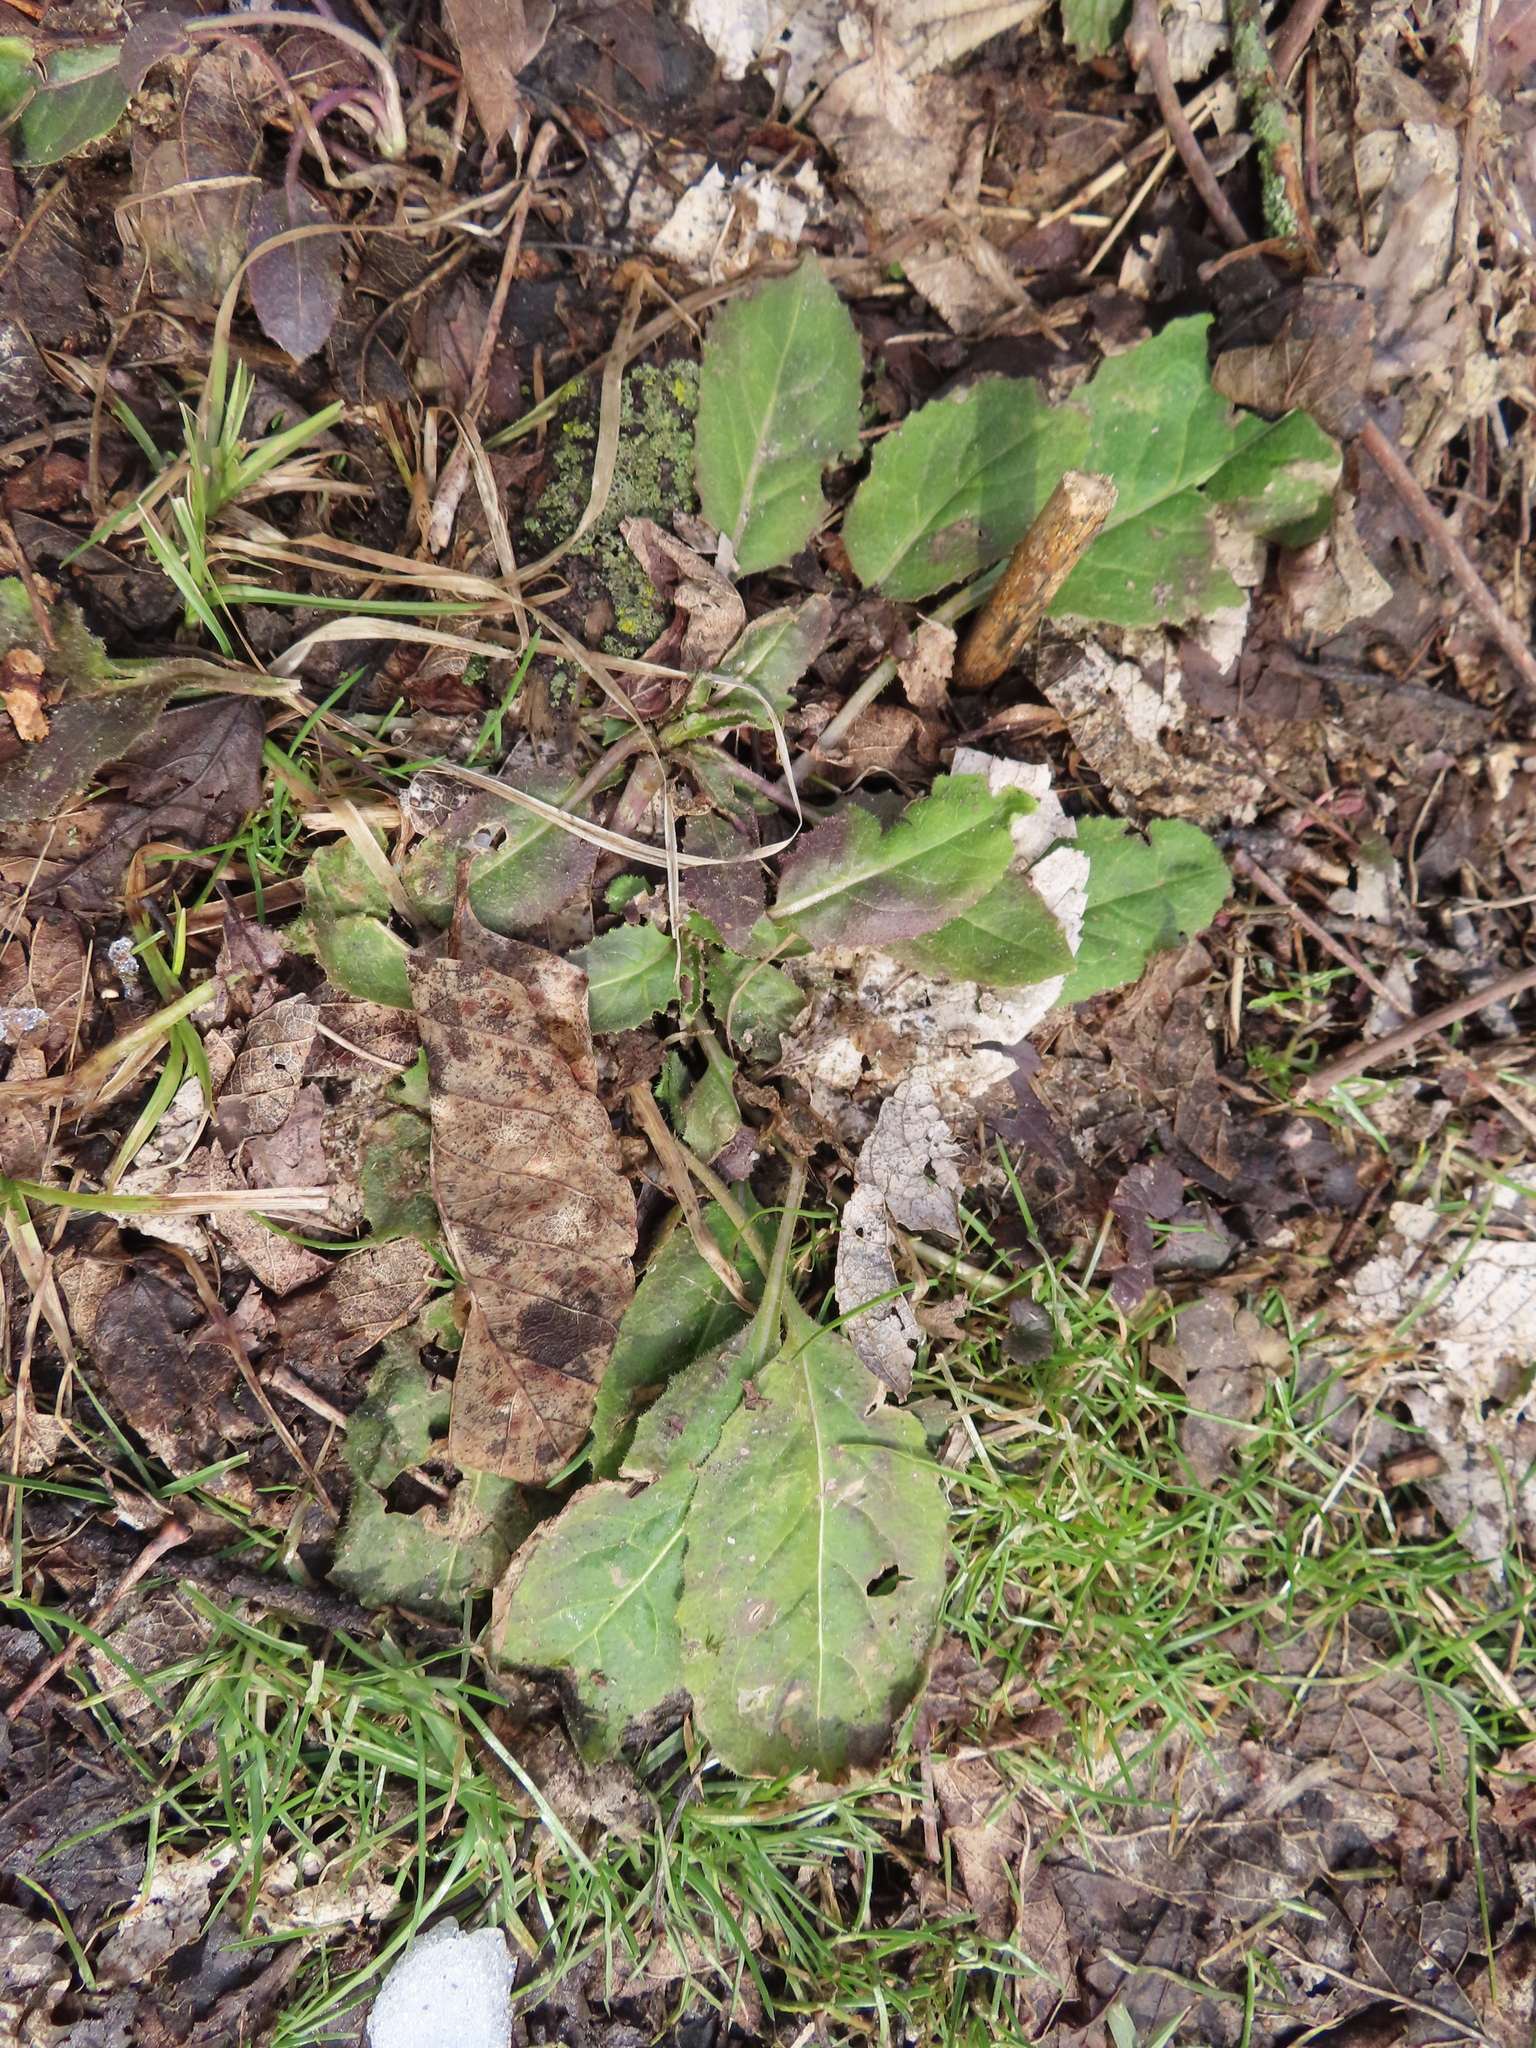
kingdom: Plantae
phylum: Tracheophyta
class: Magnoliopsida
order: Brassicales
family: Brassicaceae
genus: Hesperis
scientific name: Hesperis matronalis
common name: Dame's-violet
